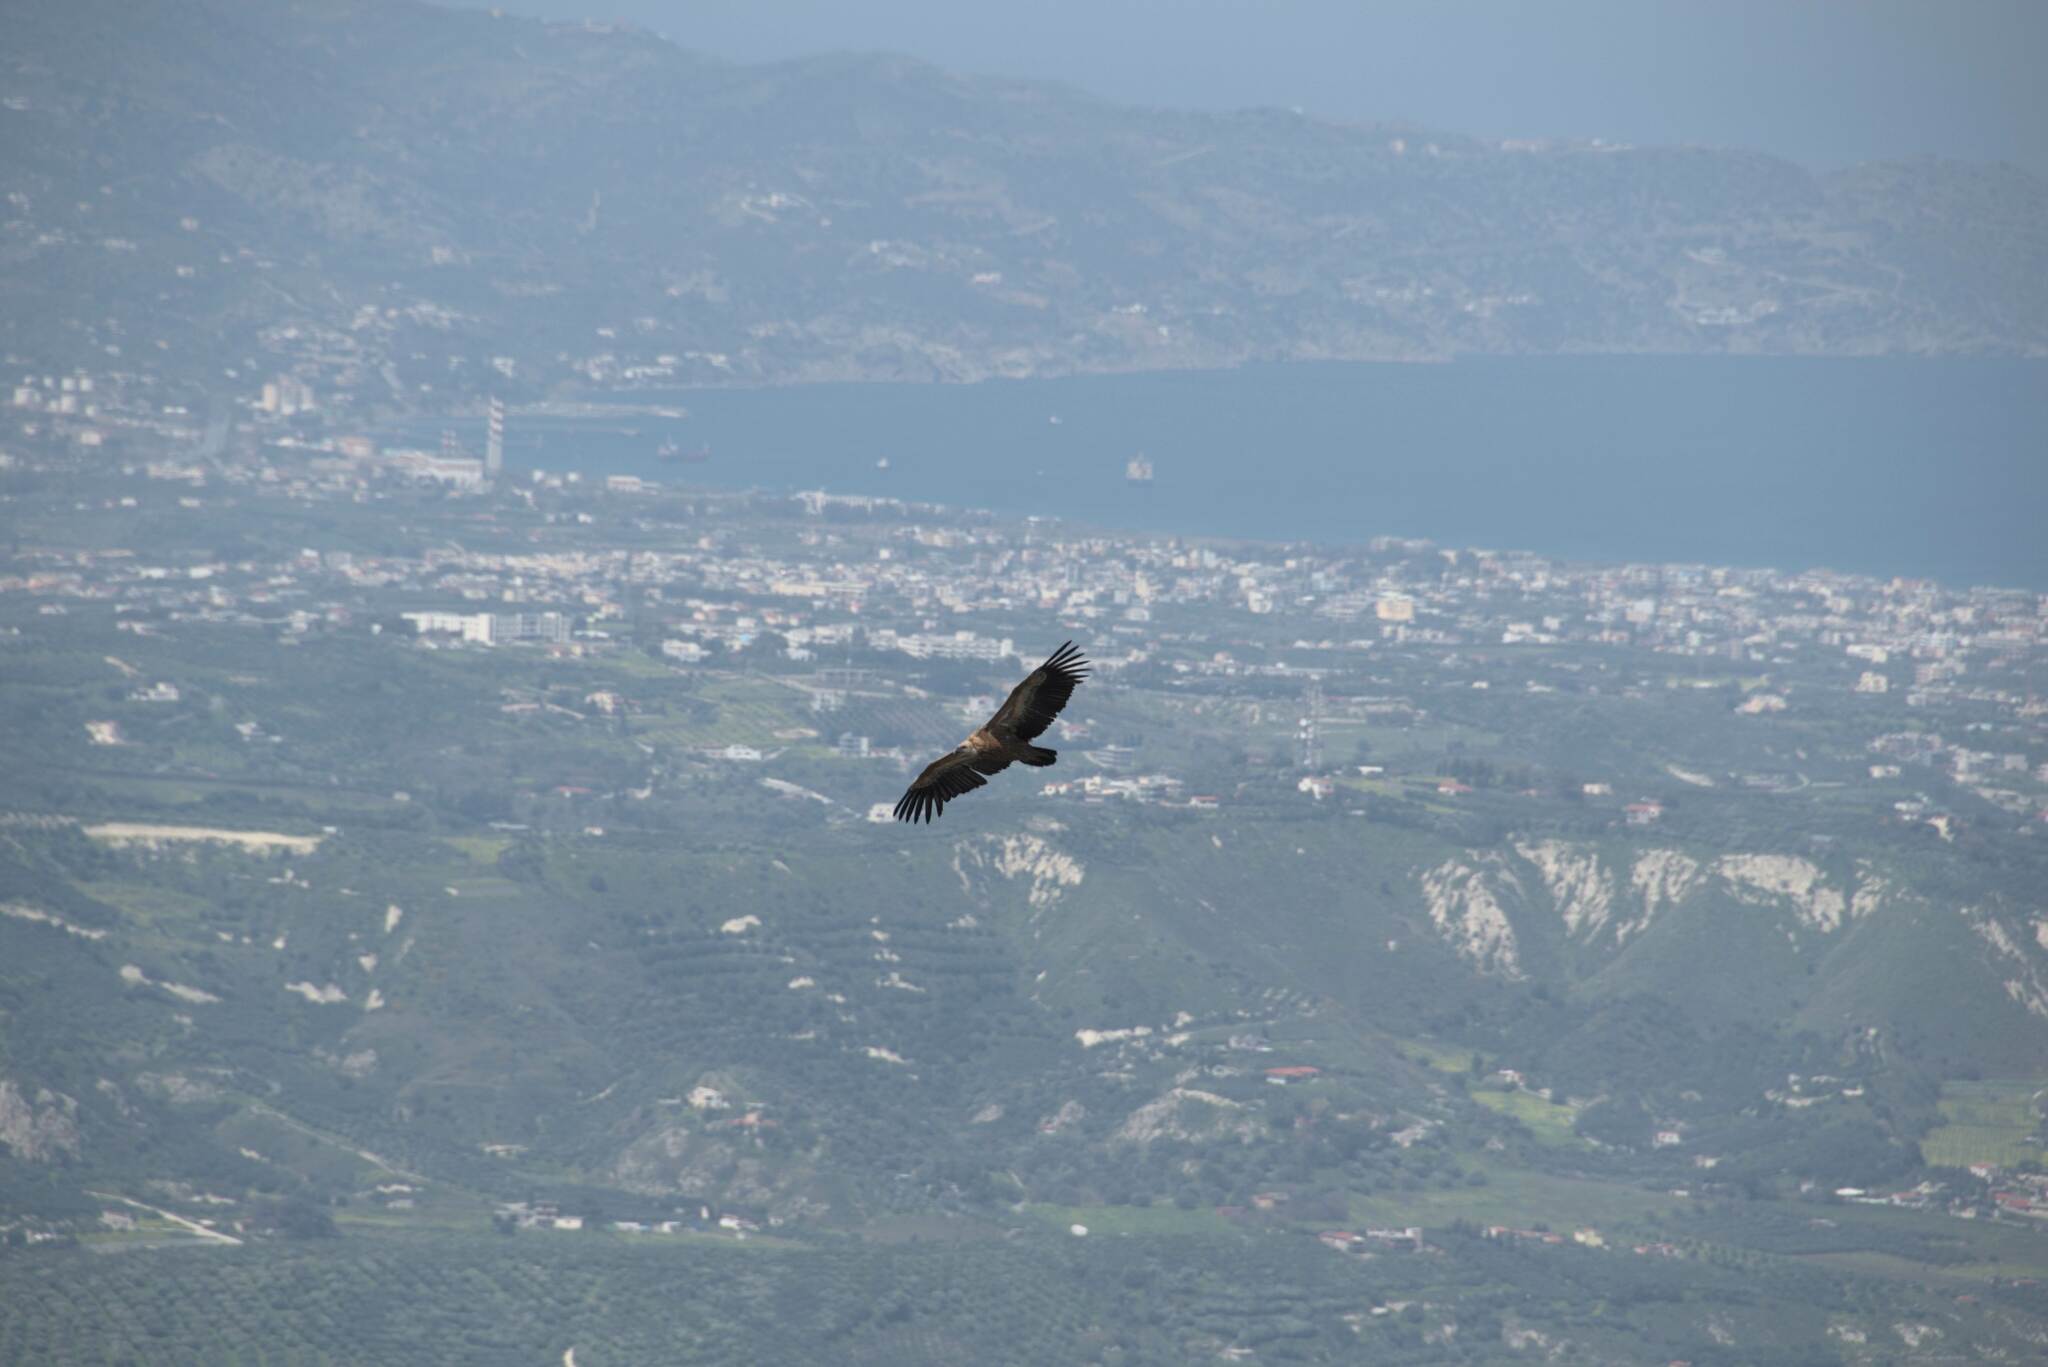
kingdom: Animalia
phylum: Chordata
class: Aves
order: Accipitriformes
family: Accipitridae
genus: Gyps
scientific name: Gyps fulvus
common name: Griffon vulture
